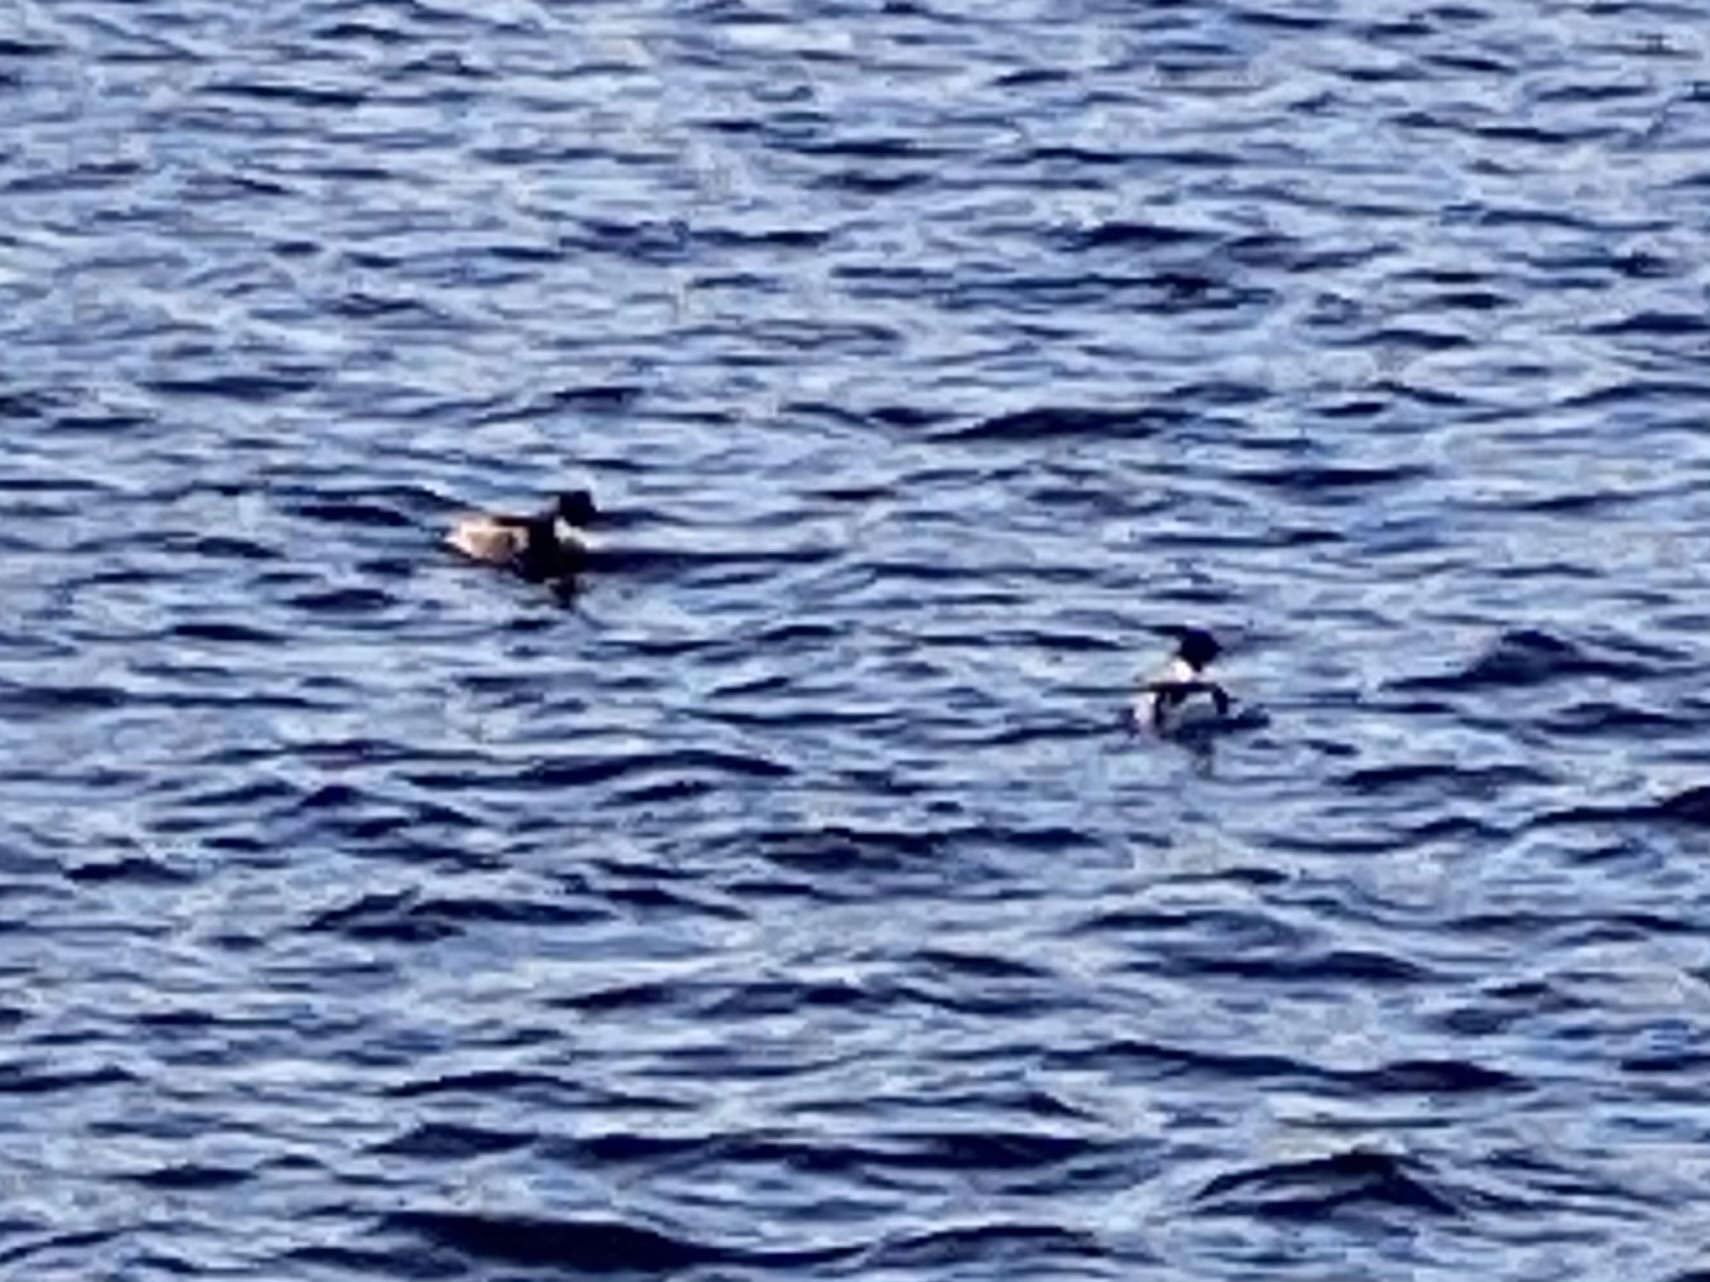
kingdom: Animalia
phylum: Chordata
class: Aves
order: Anseriformes
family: Anatidae
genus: Mergus
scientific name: Mergus serrator
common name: Red-breasted merganser
